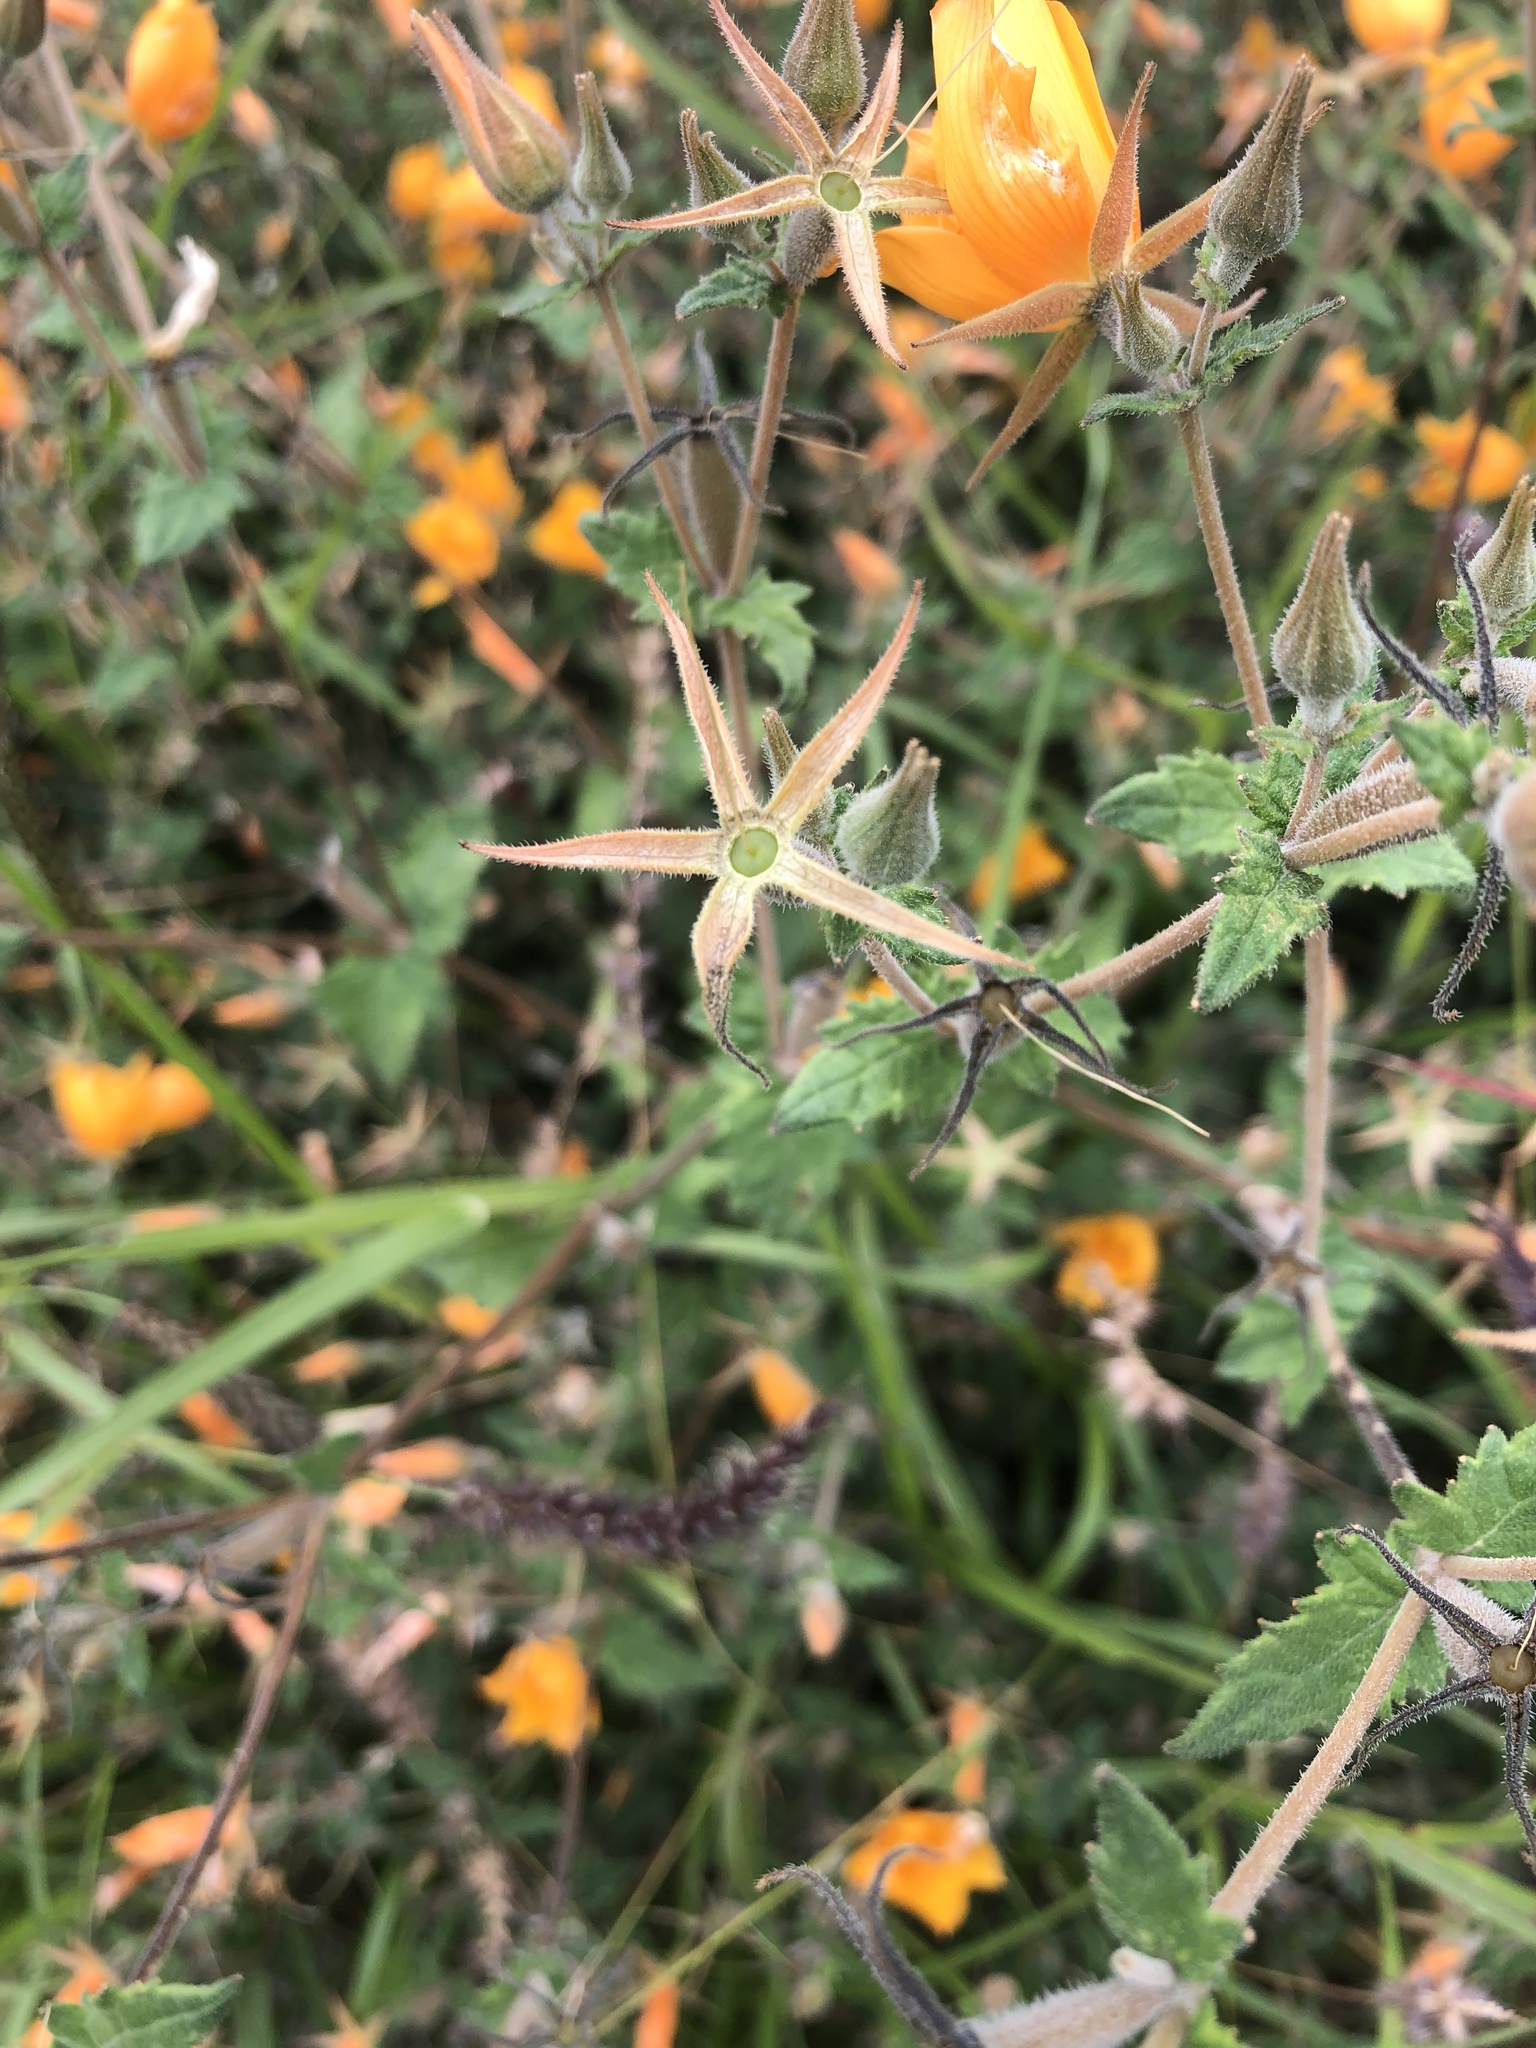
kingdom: Plantae
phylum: Tracheophyta
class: Magnoliopsida
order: Cornales
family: Loasaceae
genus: Mentzelia
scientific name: Mentzelia hispida
